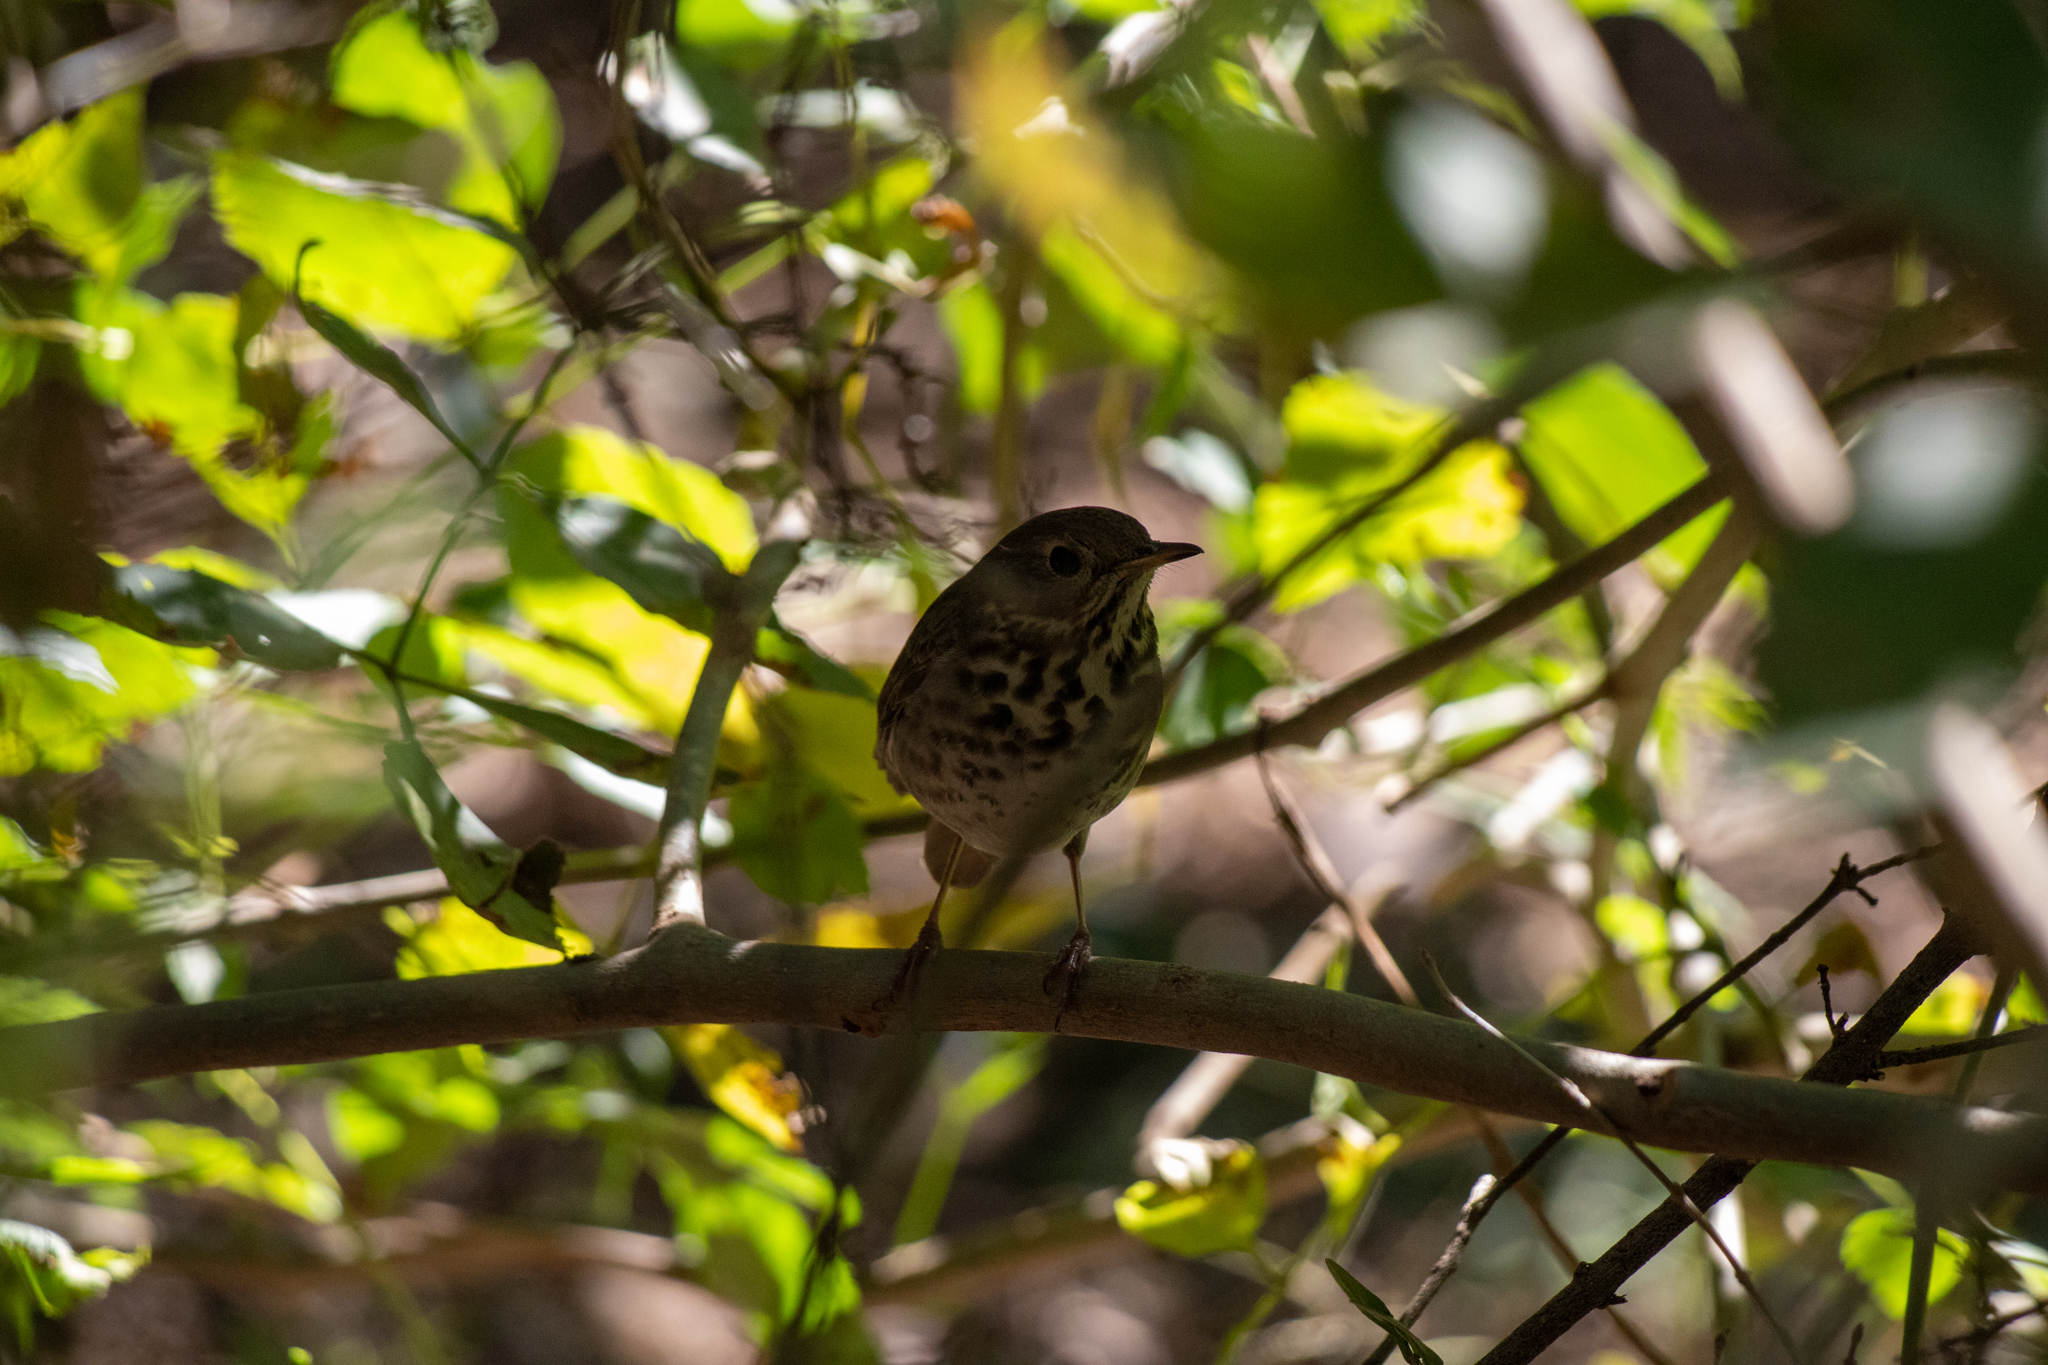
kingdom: Animalia
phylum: Chordata
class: Aves
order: Passeriformes
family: Turdidae
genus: Catharus
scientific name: Catharus guttatus
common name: Hermit thrush
